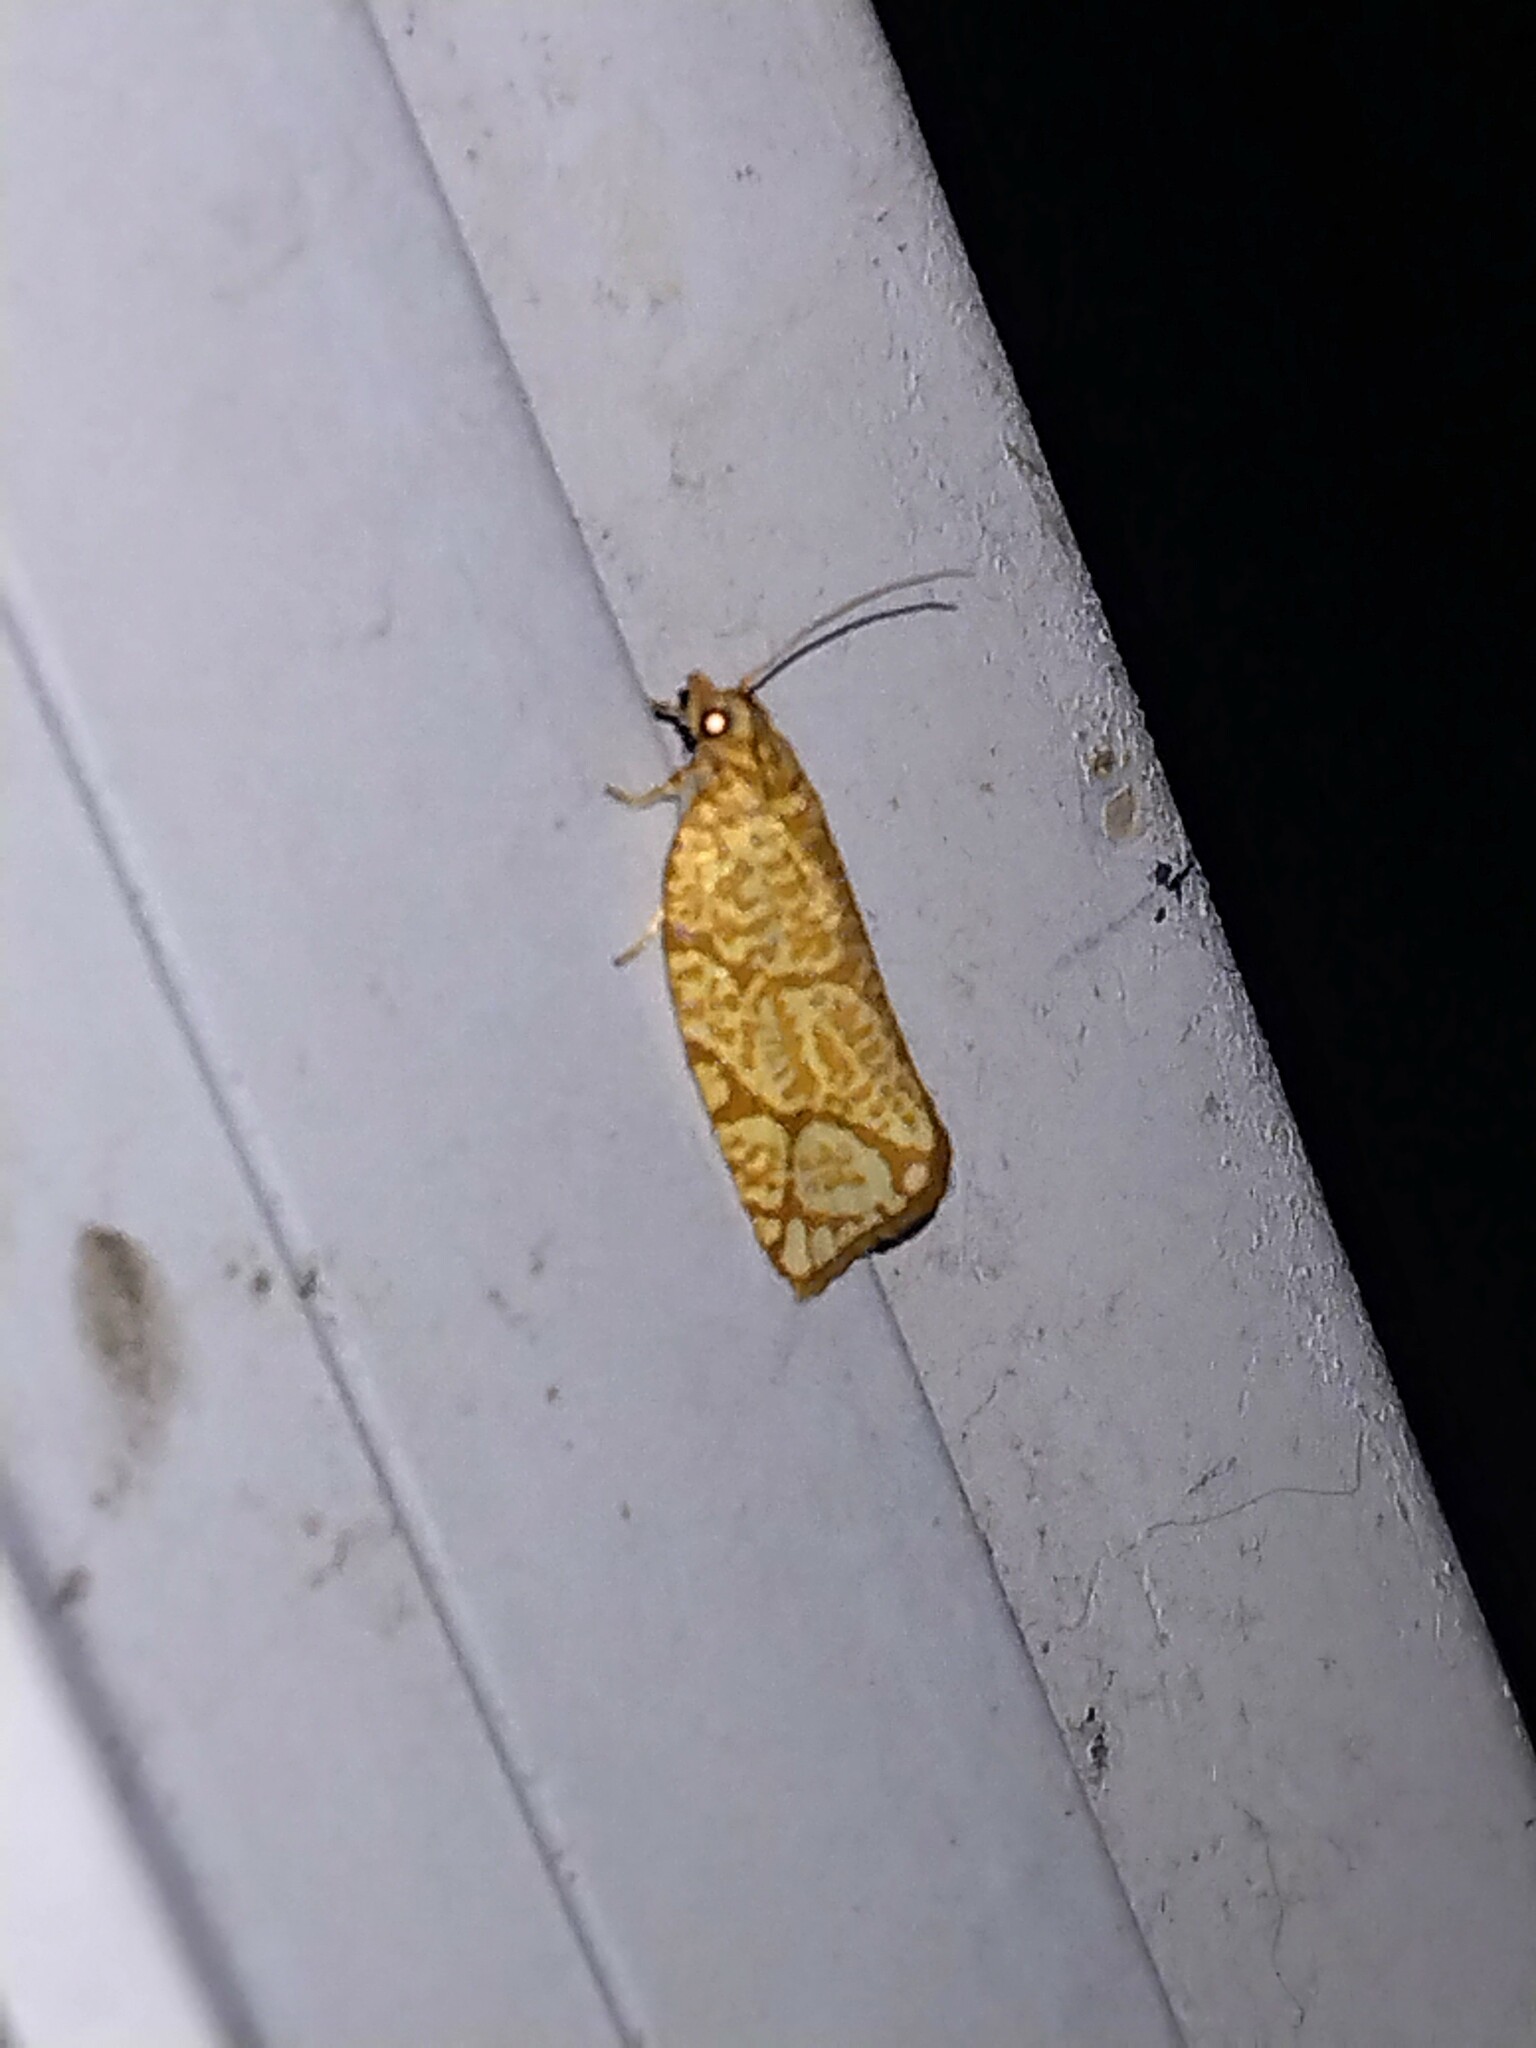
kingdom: Animalia
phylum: Arthropoda
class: Insecta
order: Lepidoptera
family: Tortricidae
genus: Argyrotaenia
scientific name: Argyrotaenia quercifoliana
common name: Yellow-winged oak leafroller moth
